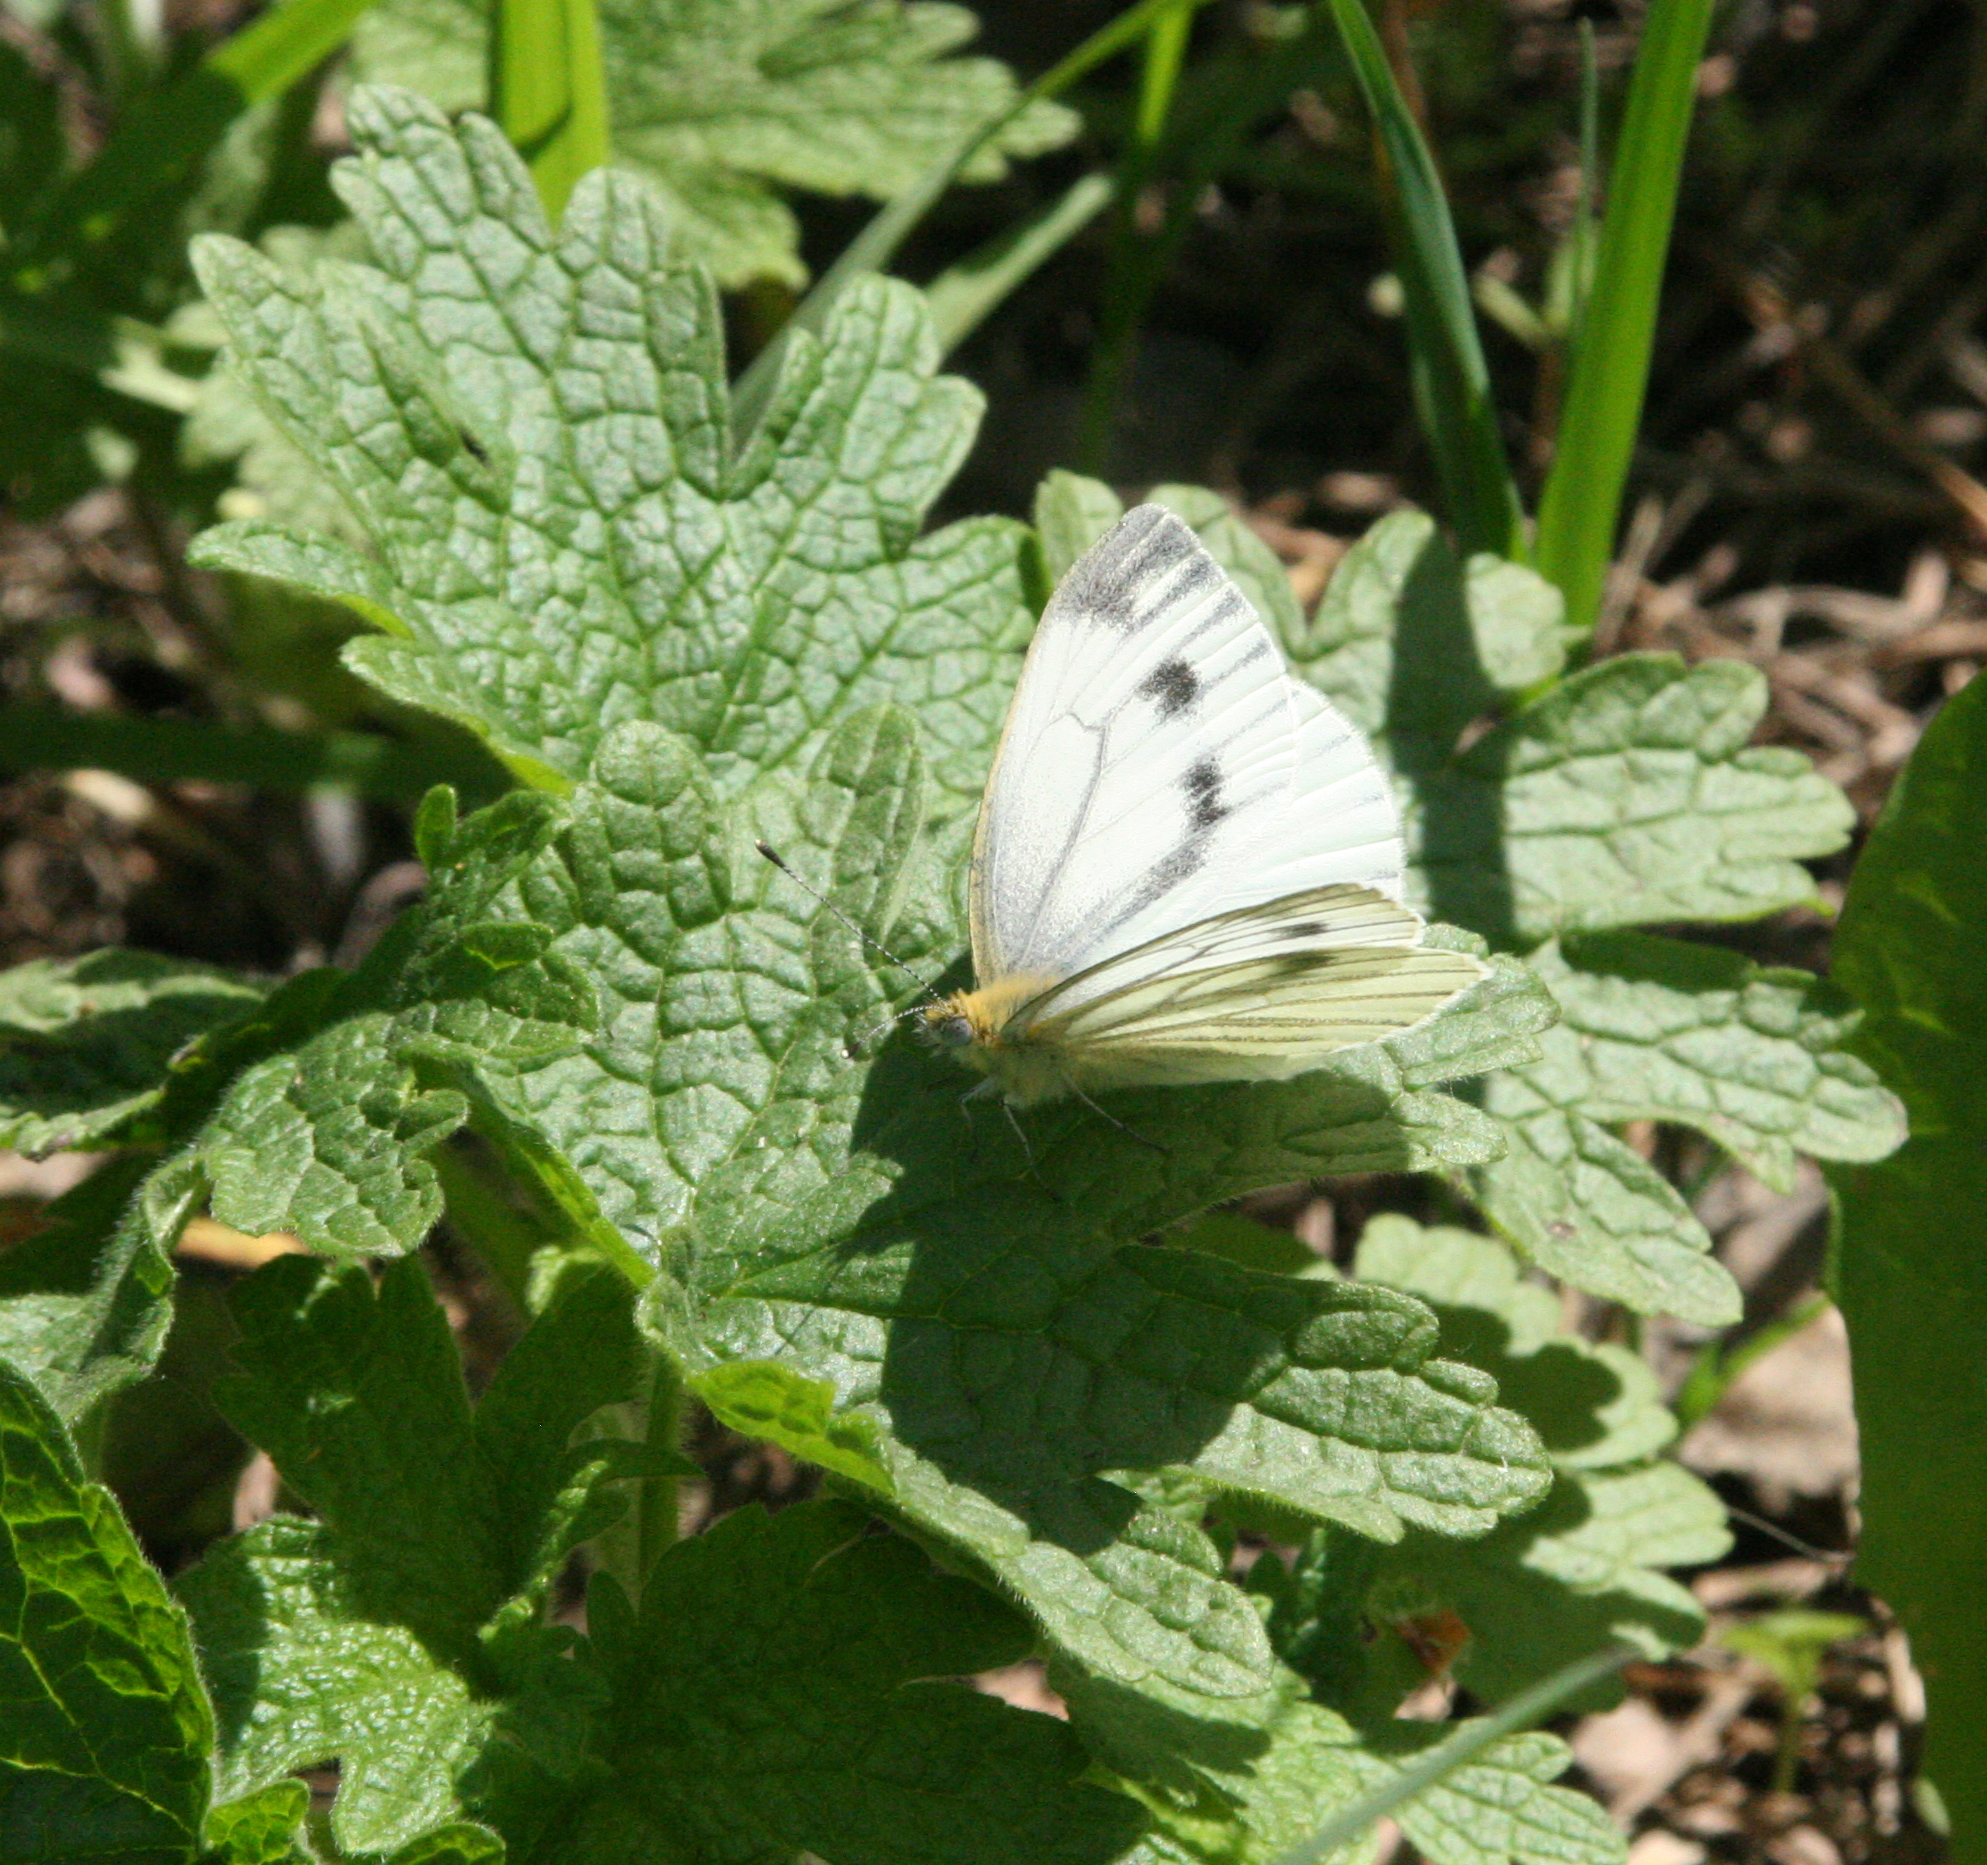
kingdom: Animalia
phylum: Arthropoda
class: Insecta
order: Lepidoptera
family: Pieridae
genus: Pieris
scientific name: Pieris napi
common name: Green-veined white
